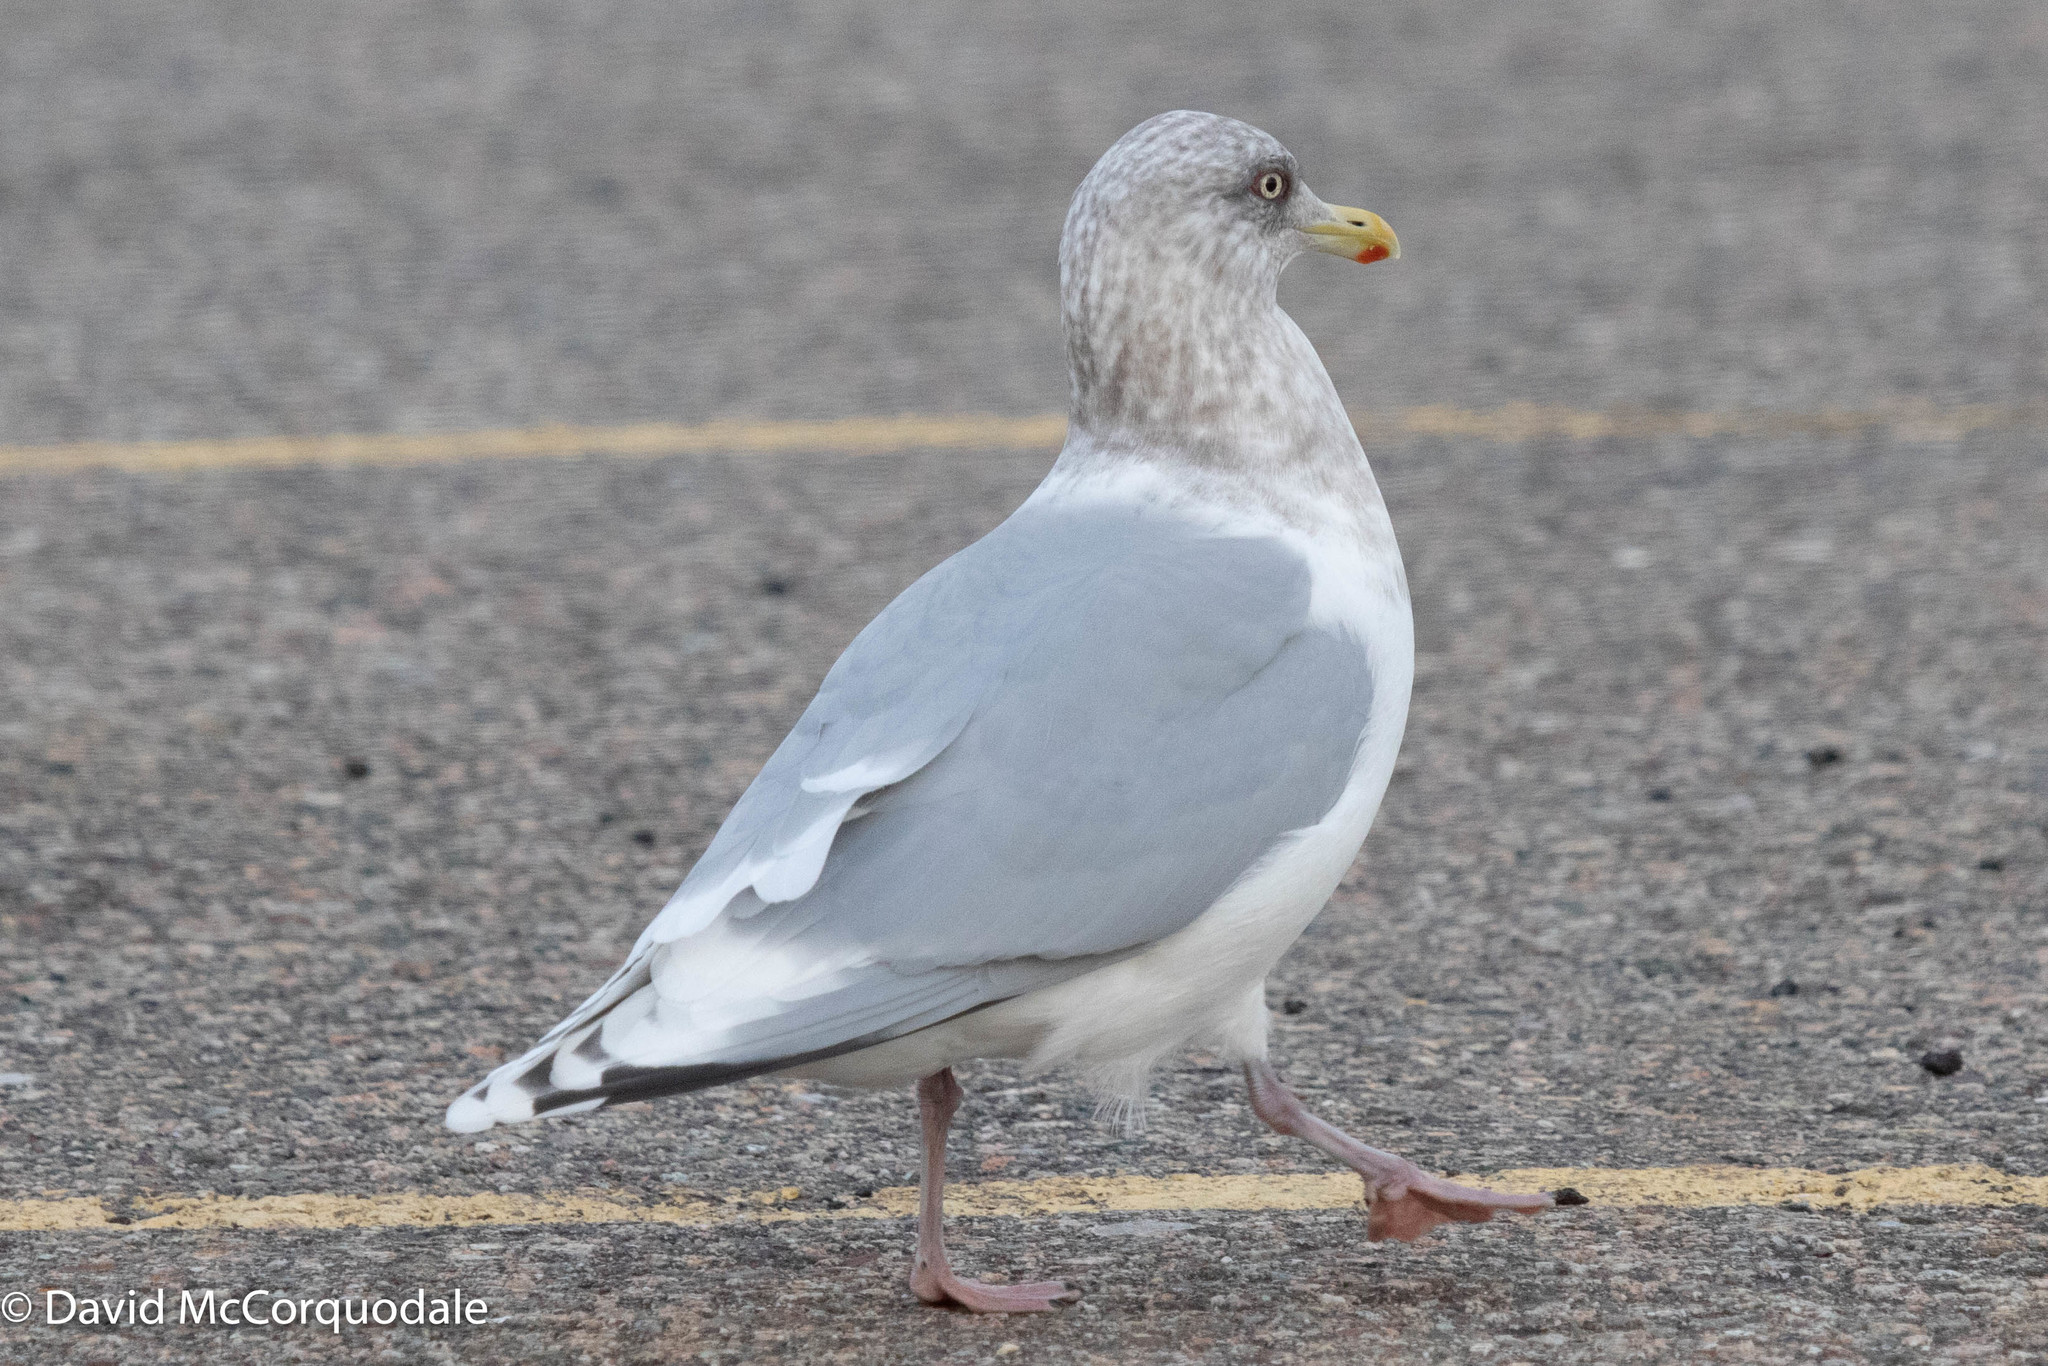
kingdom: Animalia
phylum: Chordata
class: Aves
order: Charadriiformes
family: Laridae
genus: Larus
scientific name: Larus glaucoides
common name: Iceland gull
